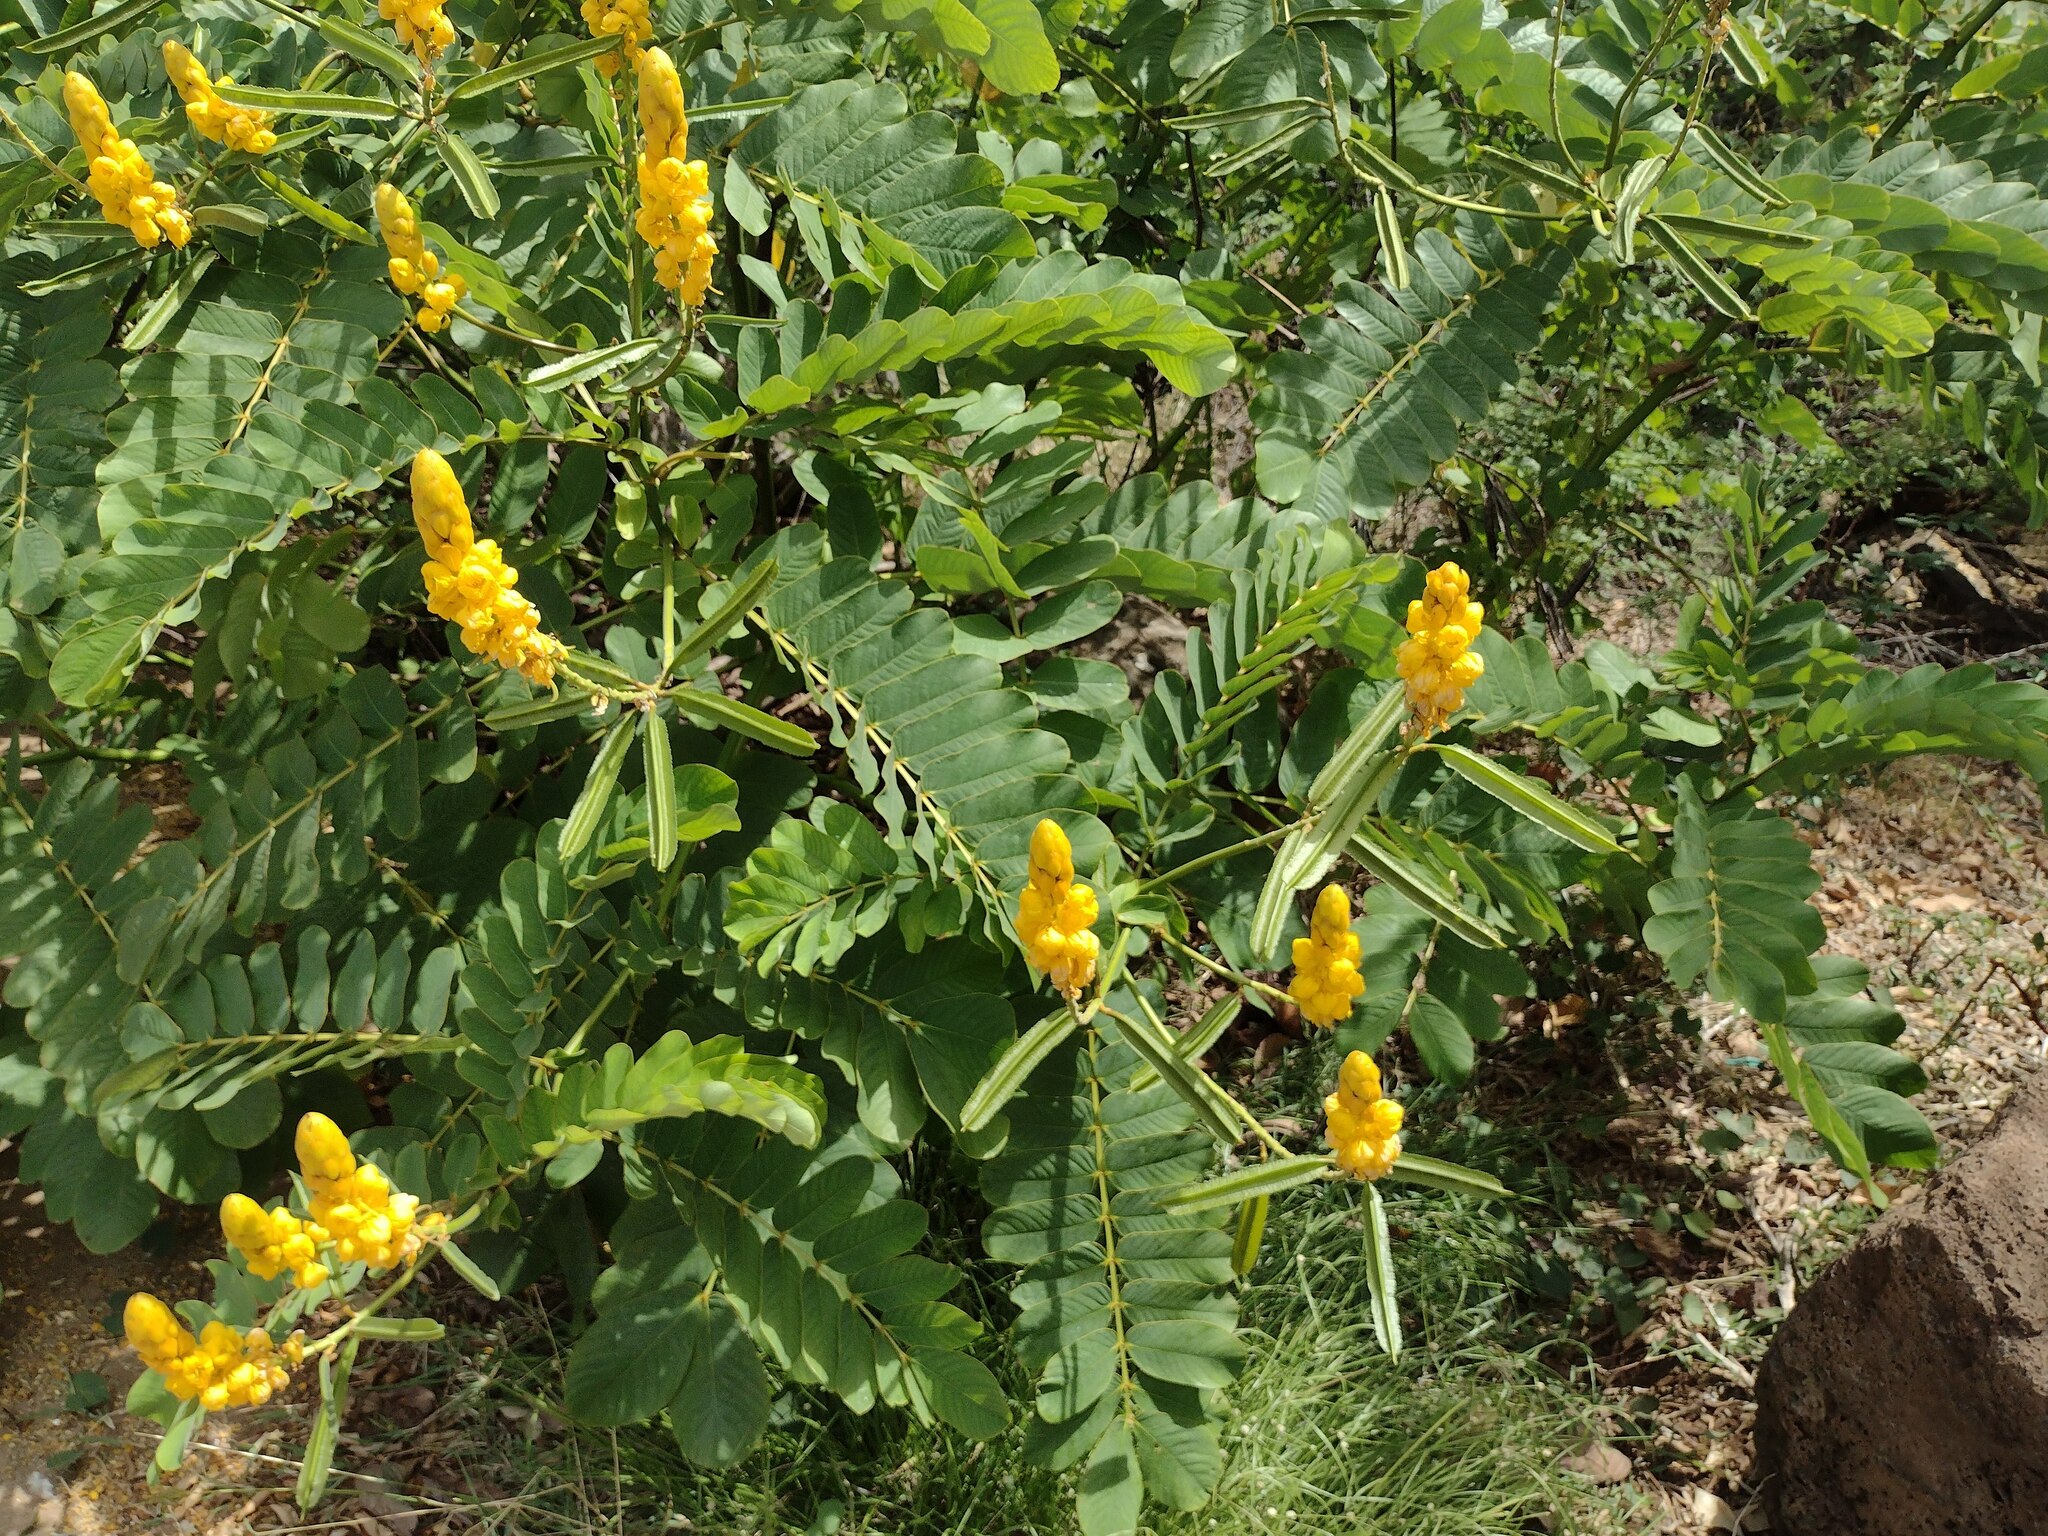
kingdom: Plantae
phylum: Tracheophyta
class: Magnoliopsida
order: Fabales
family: Fabaceae
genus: Senna
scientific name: Senna alata
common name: Emperor's candlesticks
